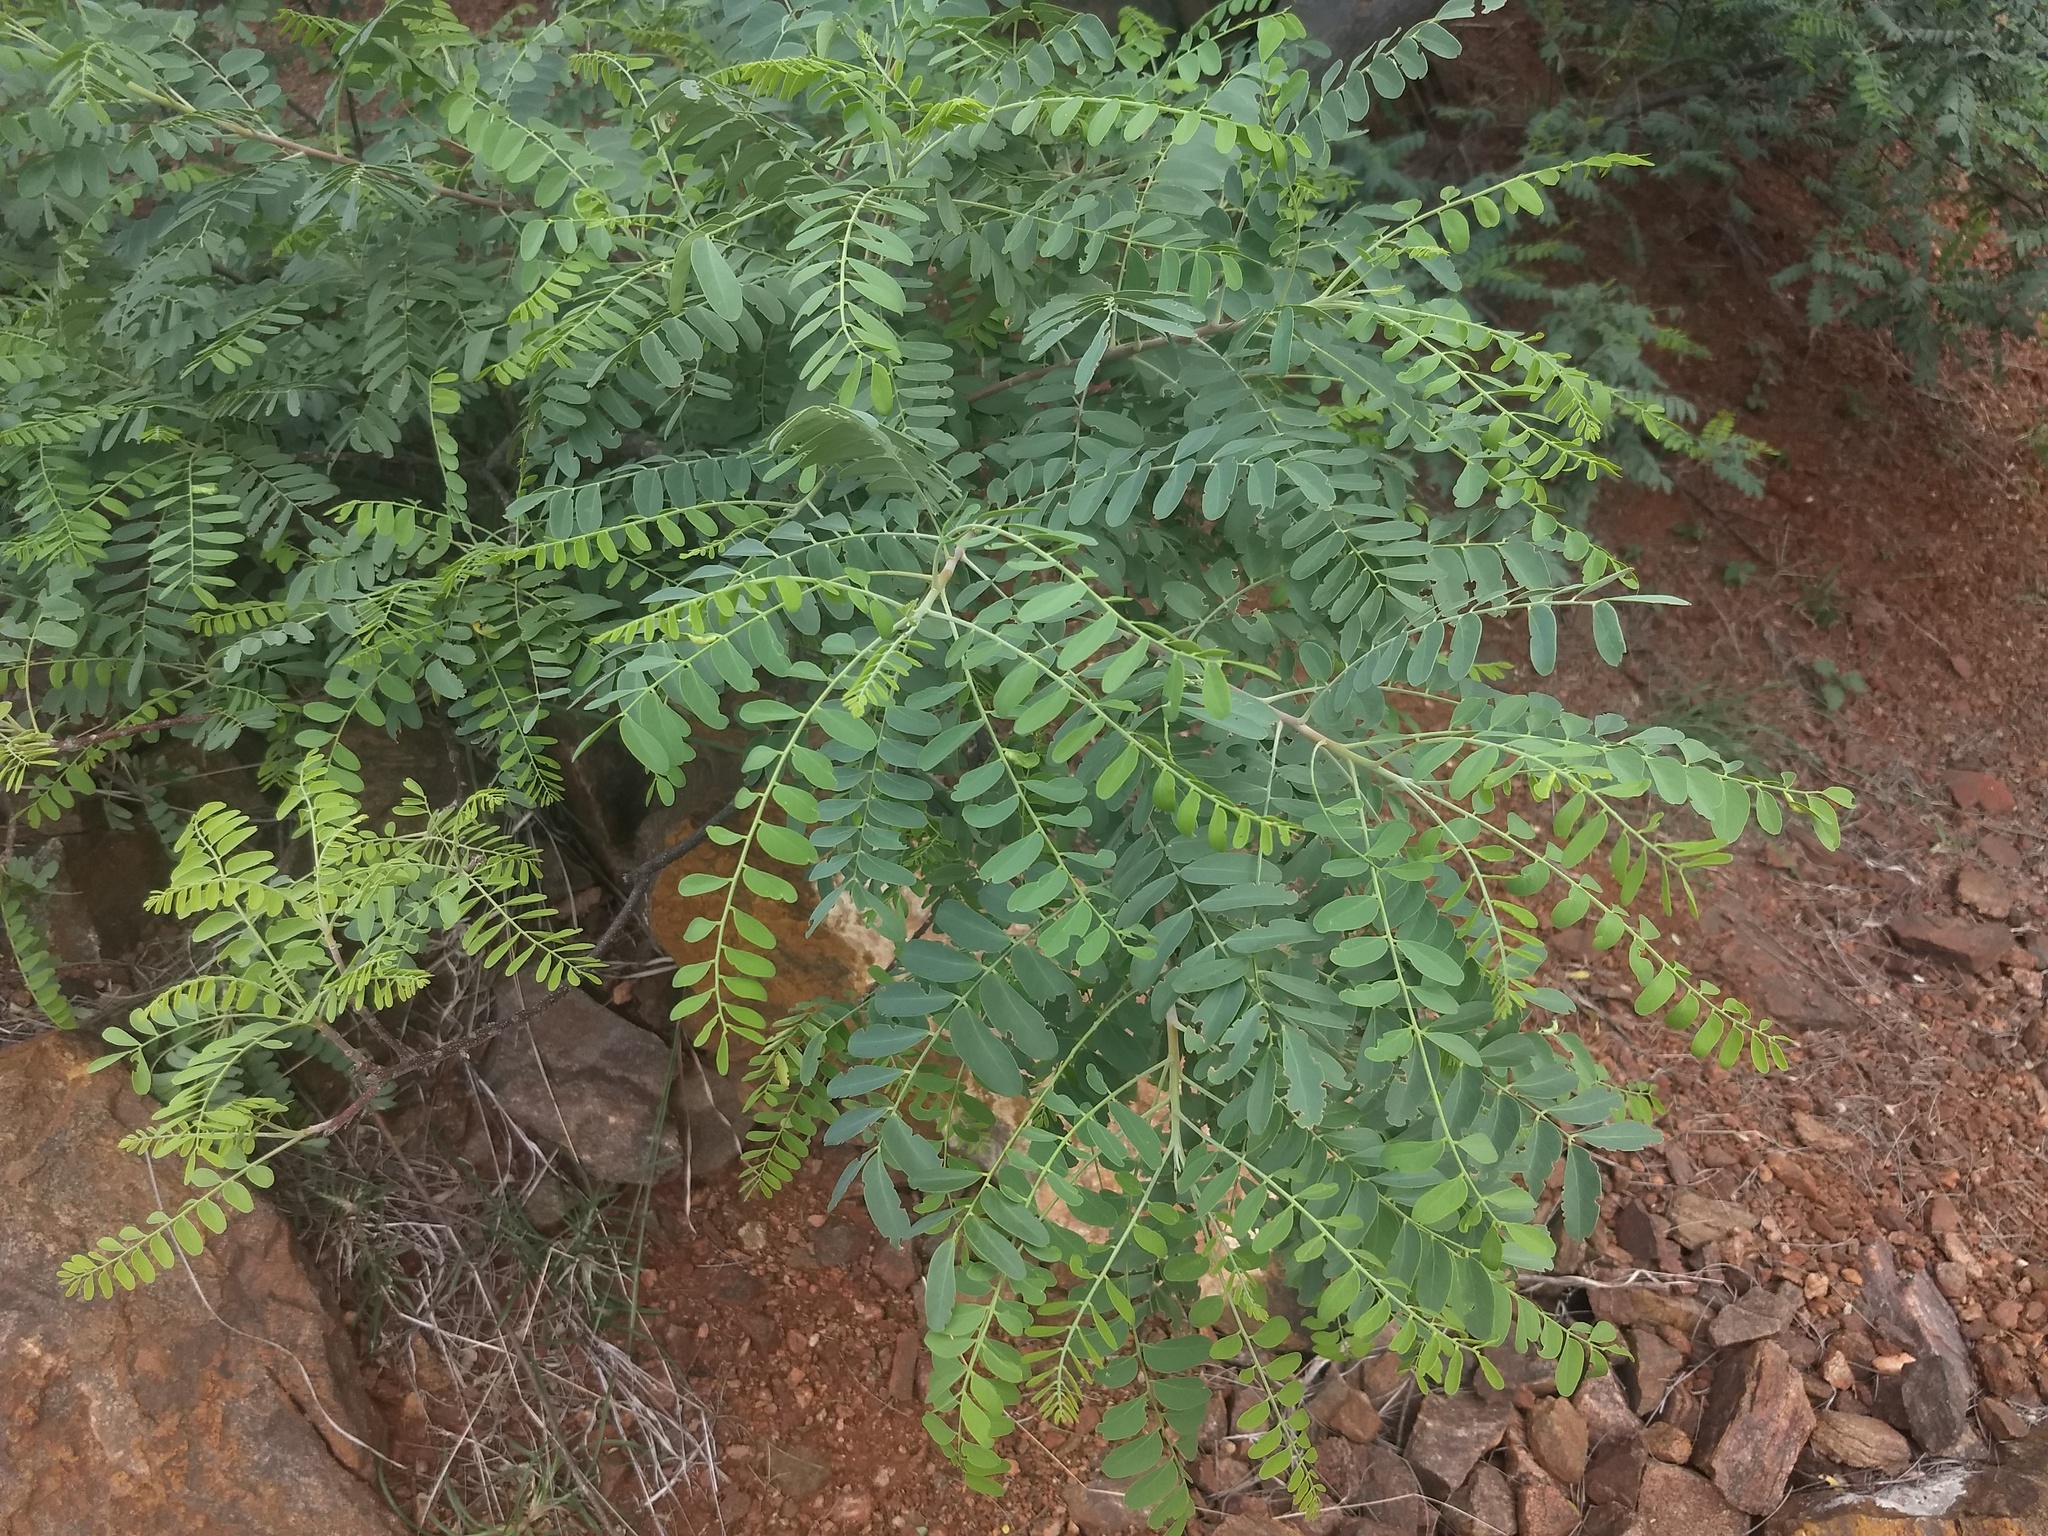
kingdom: Plantae
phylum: Tracheophyta
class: Magnoliopsida
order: Sapindales
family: Rutaceae
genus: Chloroxylon
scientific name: Chloroxylon swietenia
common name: East indian satinwood
